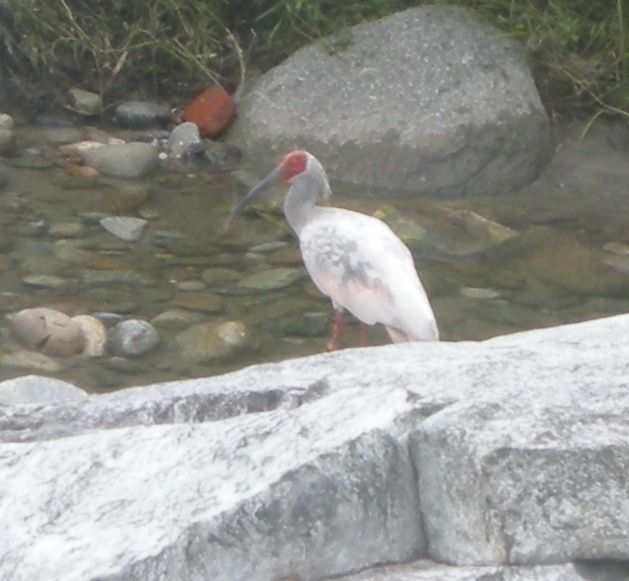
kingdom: Animalia
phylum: Chordata
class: Aves
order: Pelecaniformes
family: Threskiornithidae
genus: Nipponia
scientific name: Nipponia nippon
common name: Crested ibis
